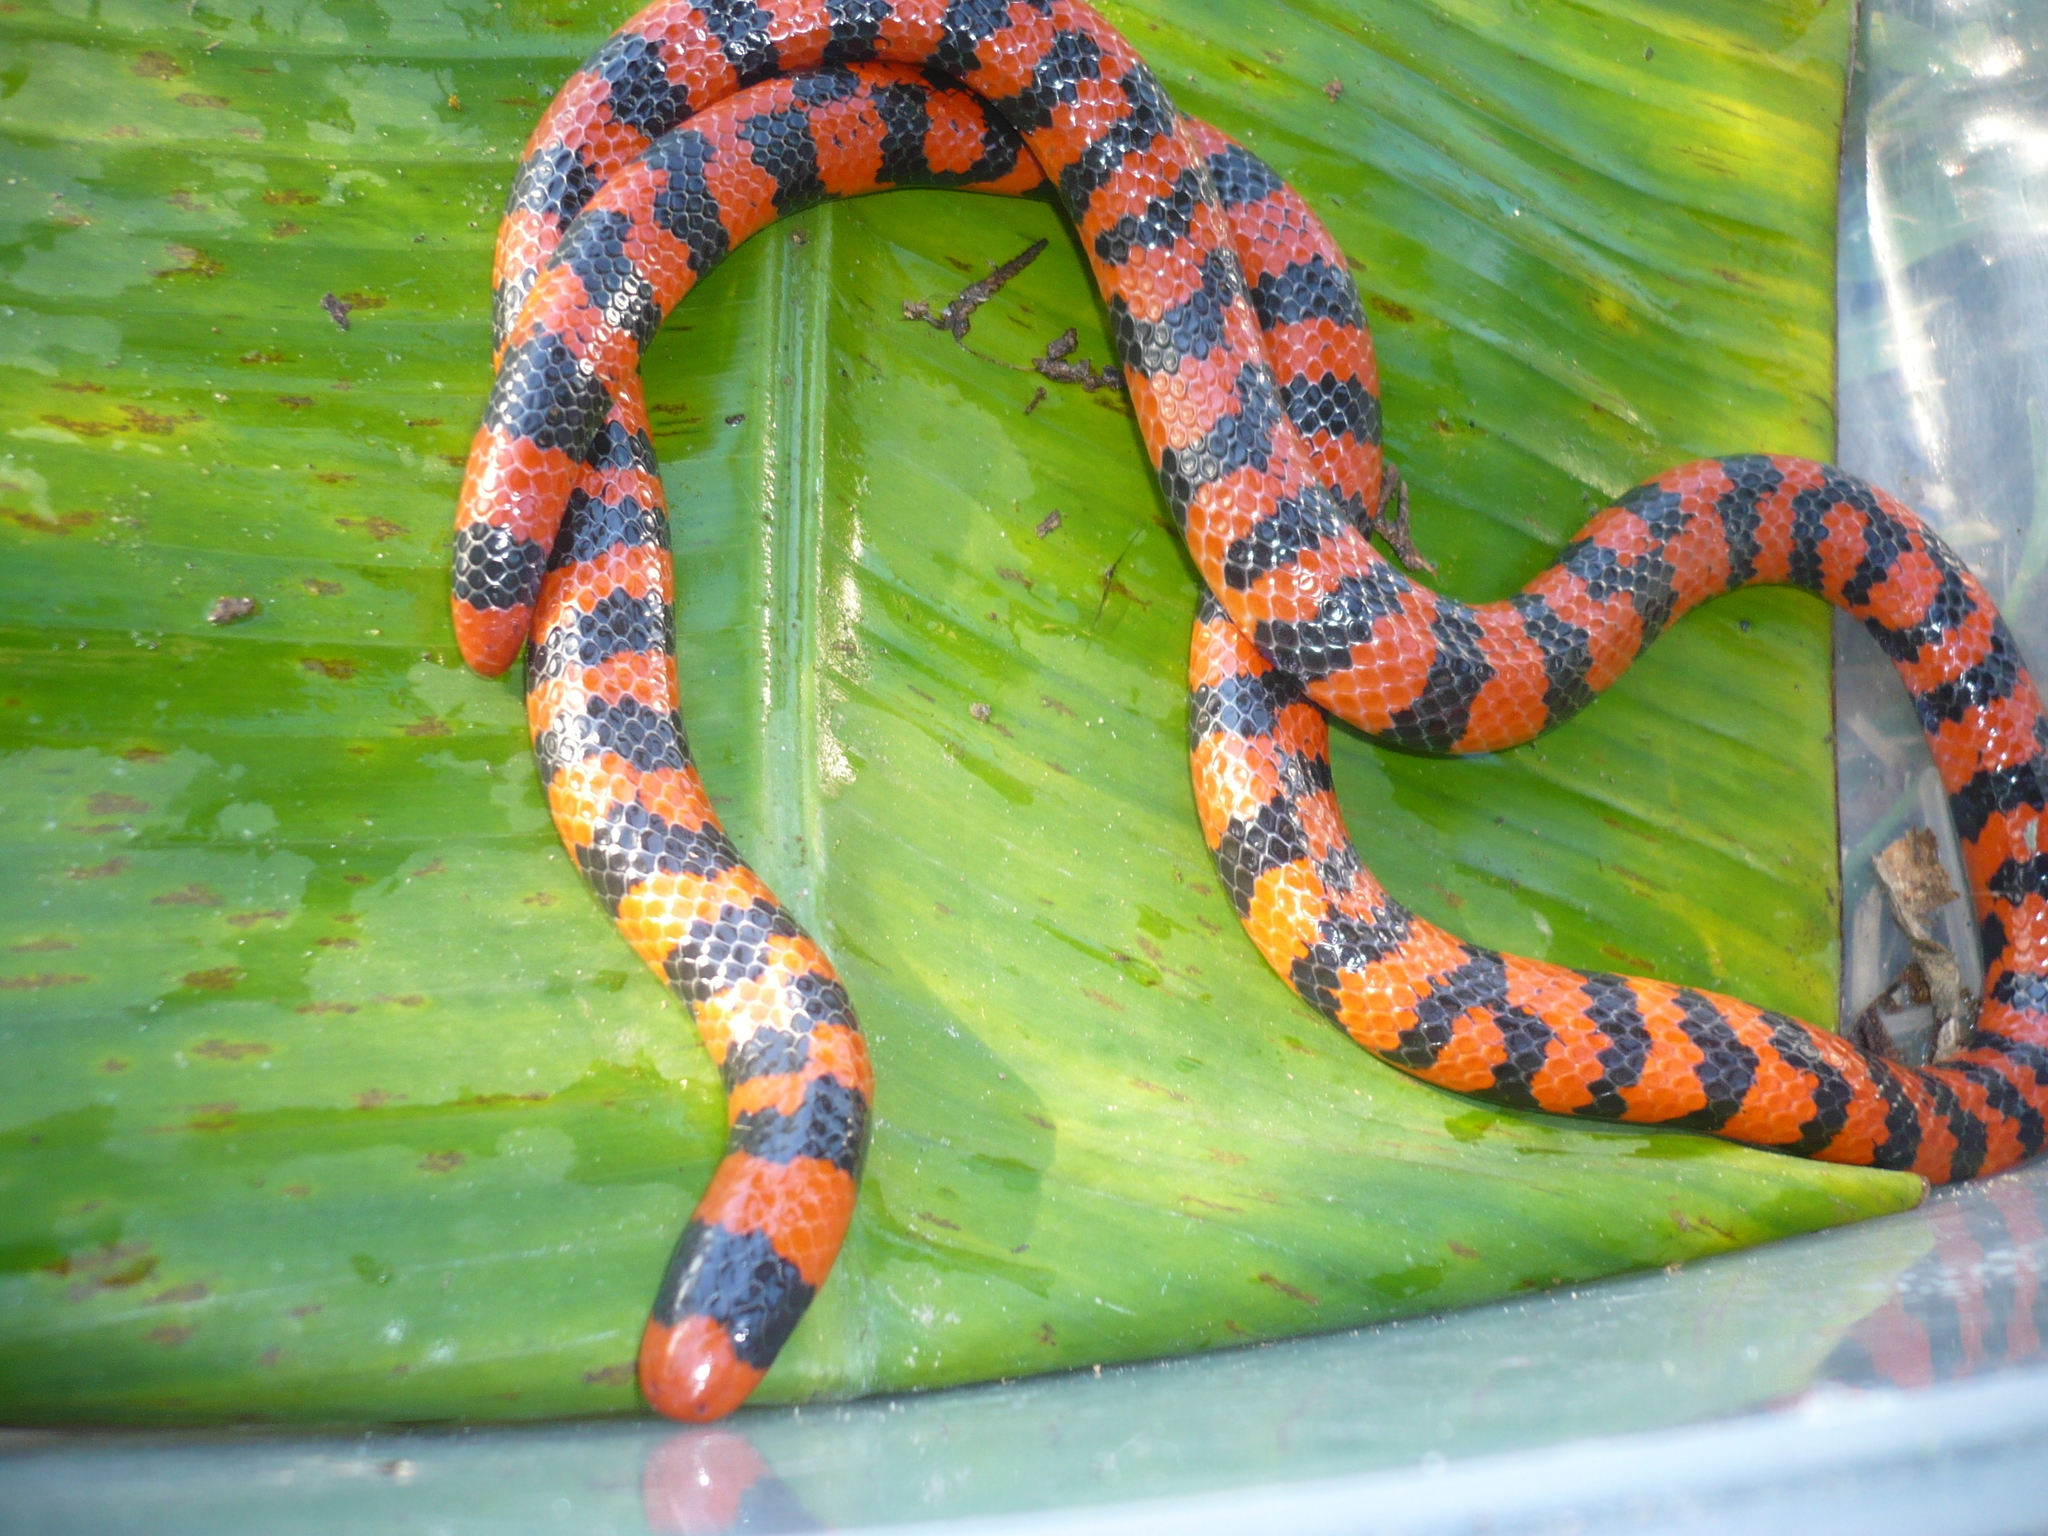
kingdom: Animalia
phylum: Chordata
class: Squamata
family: Aniliidae
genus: Anilius
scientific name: Anilius scytale
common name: Coral pipe snakes
